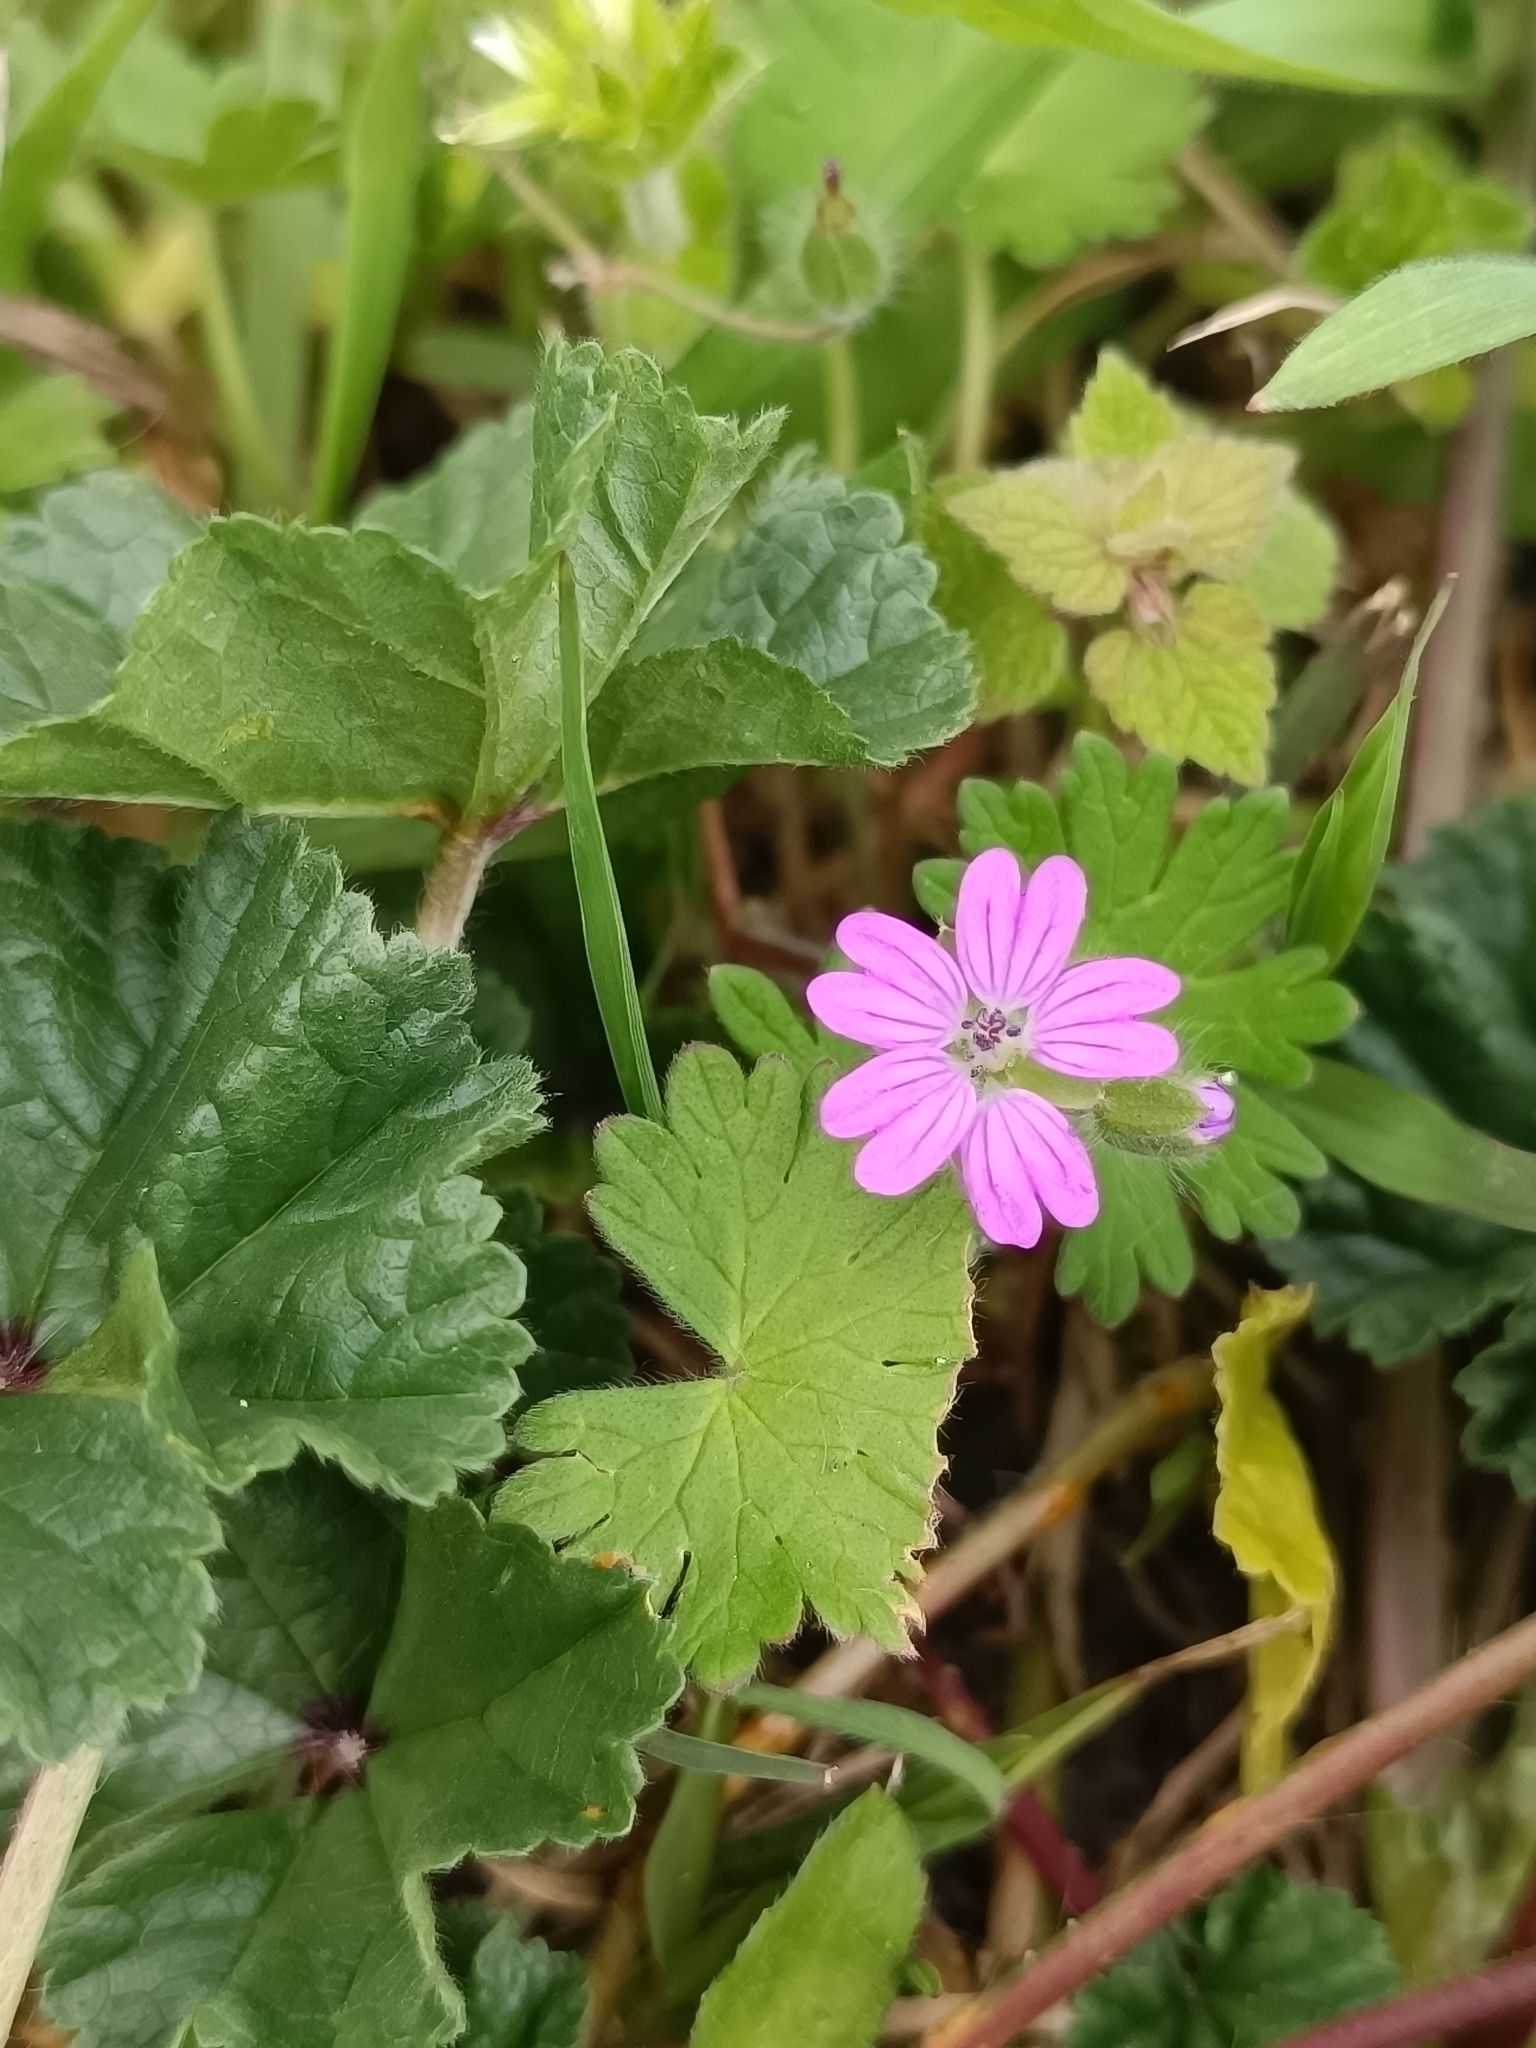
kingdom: Plantae
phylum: Tracheophyta
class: Magnoliopsida
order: Geraniales
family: Geraniaceae
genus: Geranium
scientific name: Geranium molle
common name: Dove's-foot crane's-bill
